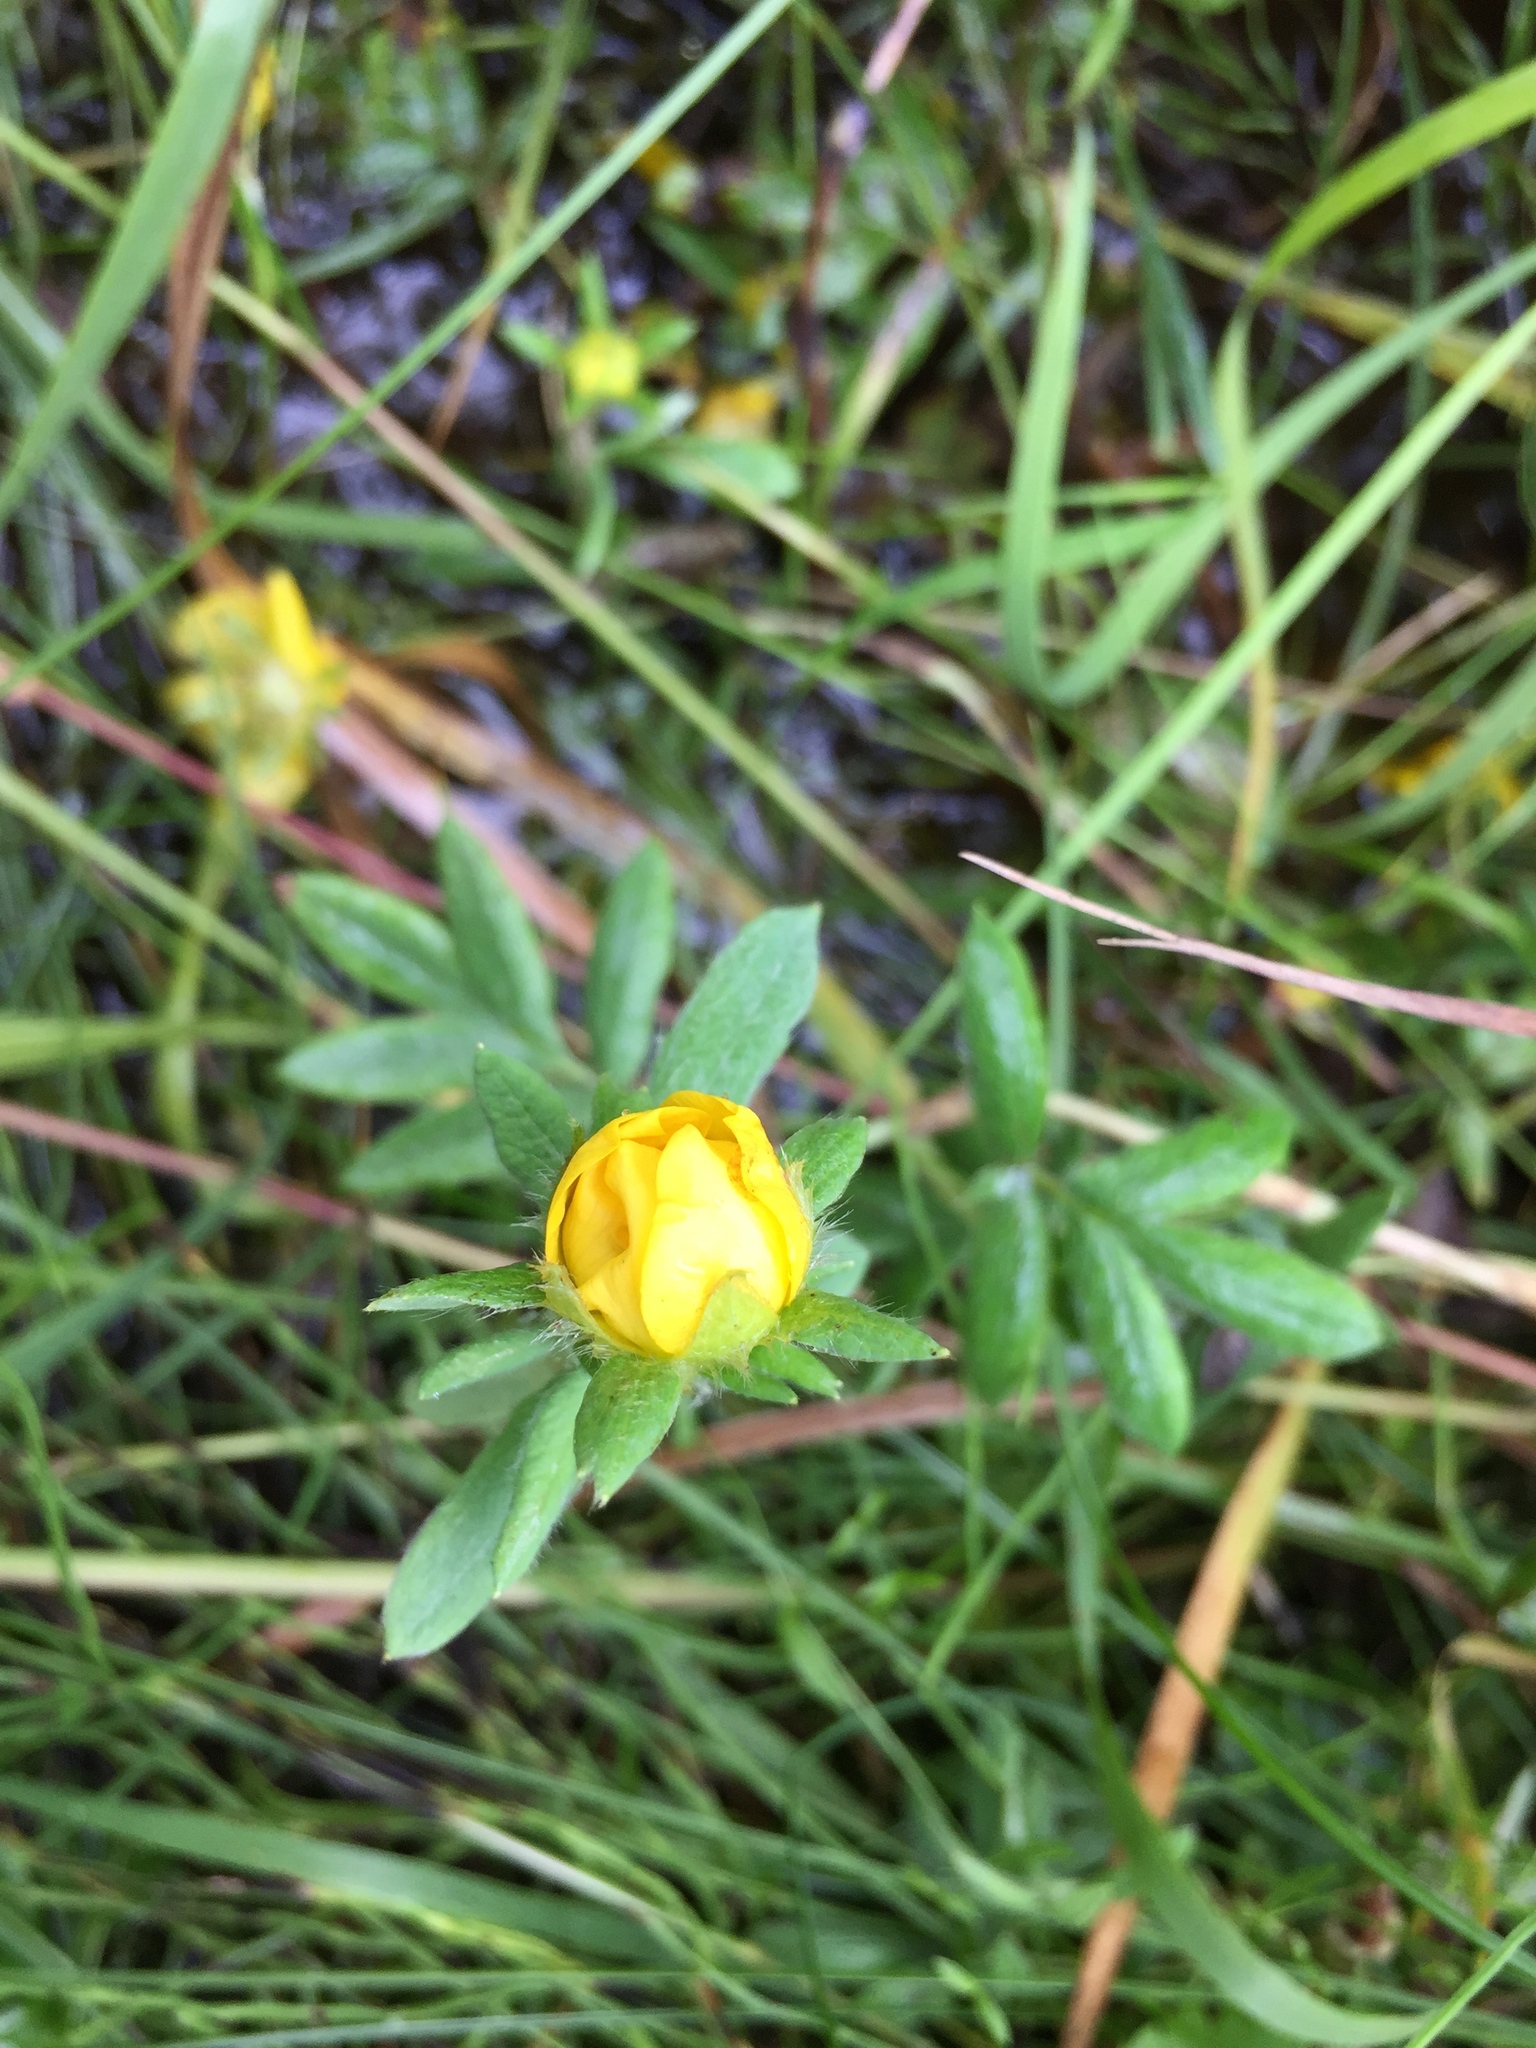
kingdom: Plantae
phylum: Tracheophyta
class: Magnoliopsida
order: Rosales
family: Rosaceae
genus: Dasiphora
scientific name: Dasiphora fruticosa
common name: Shrubby cinquefoil
